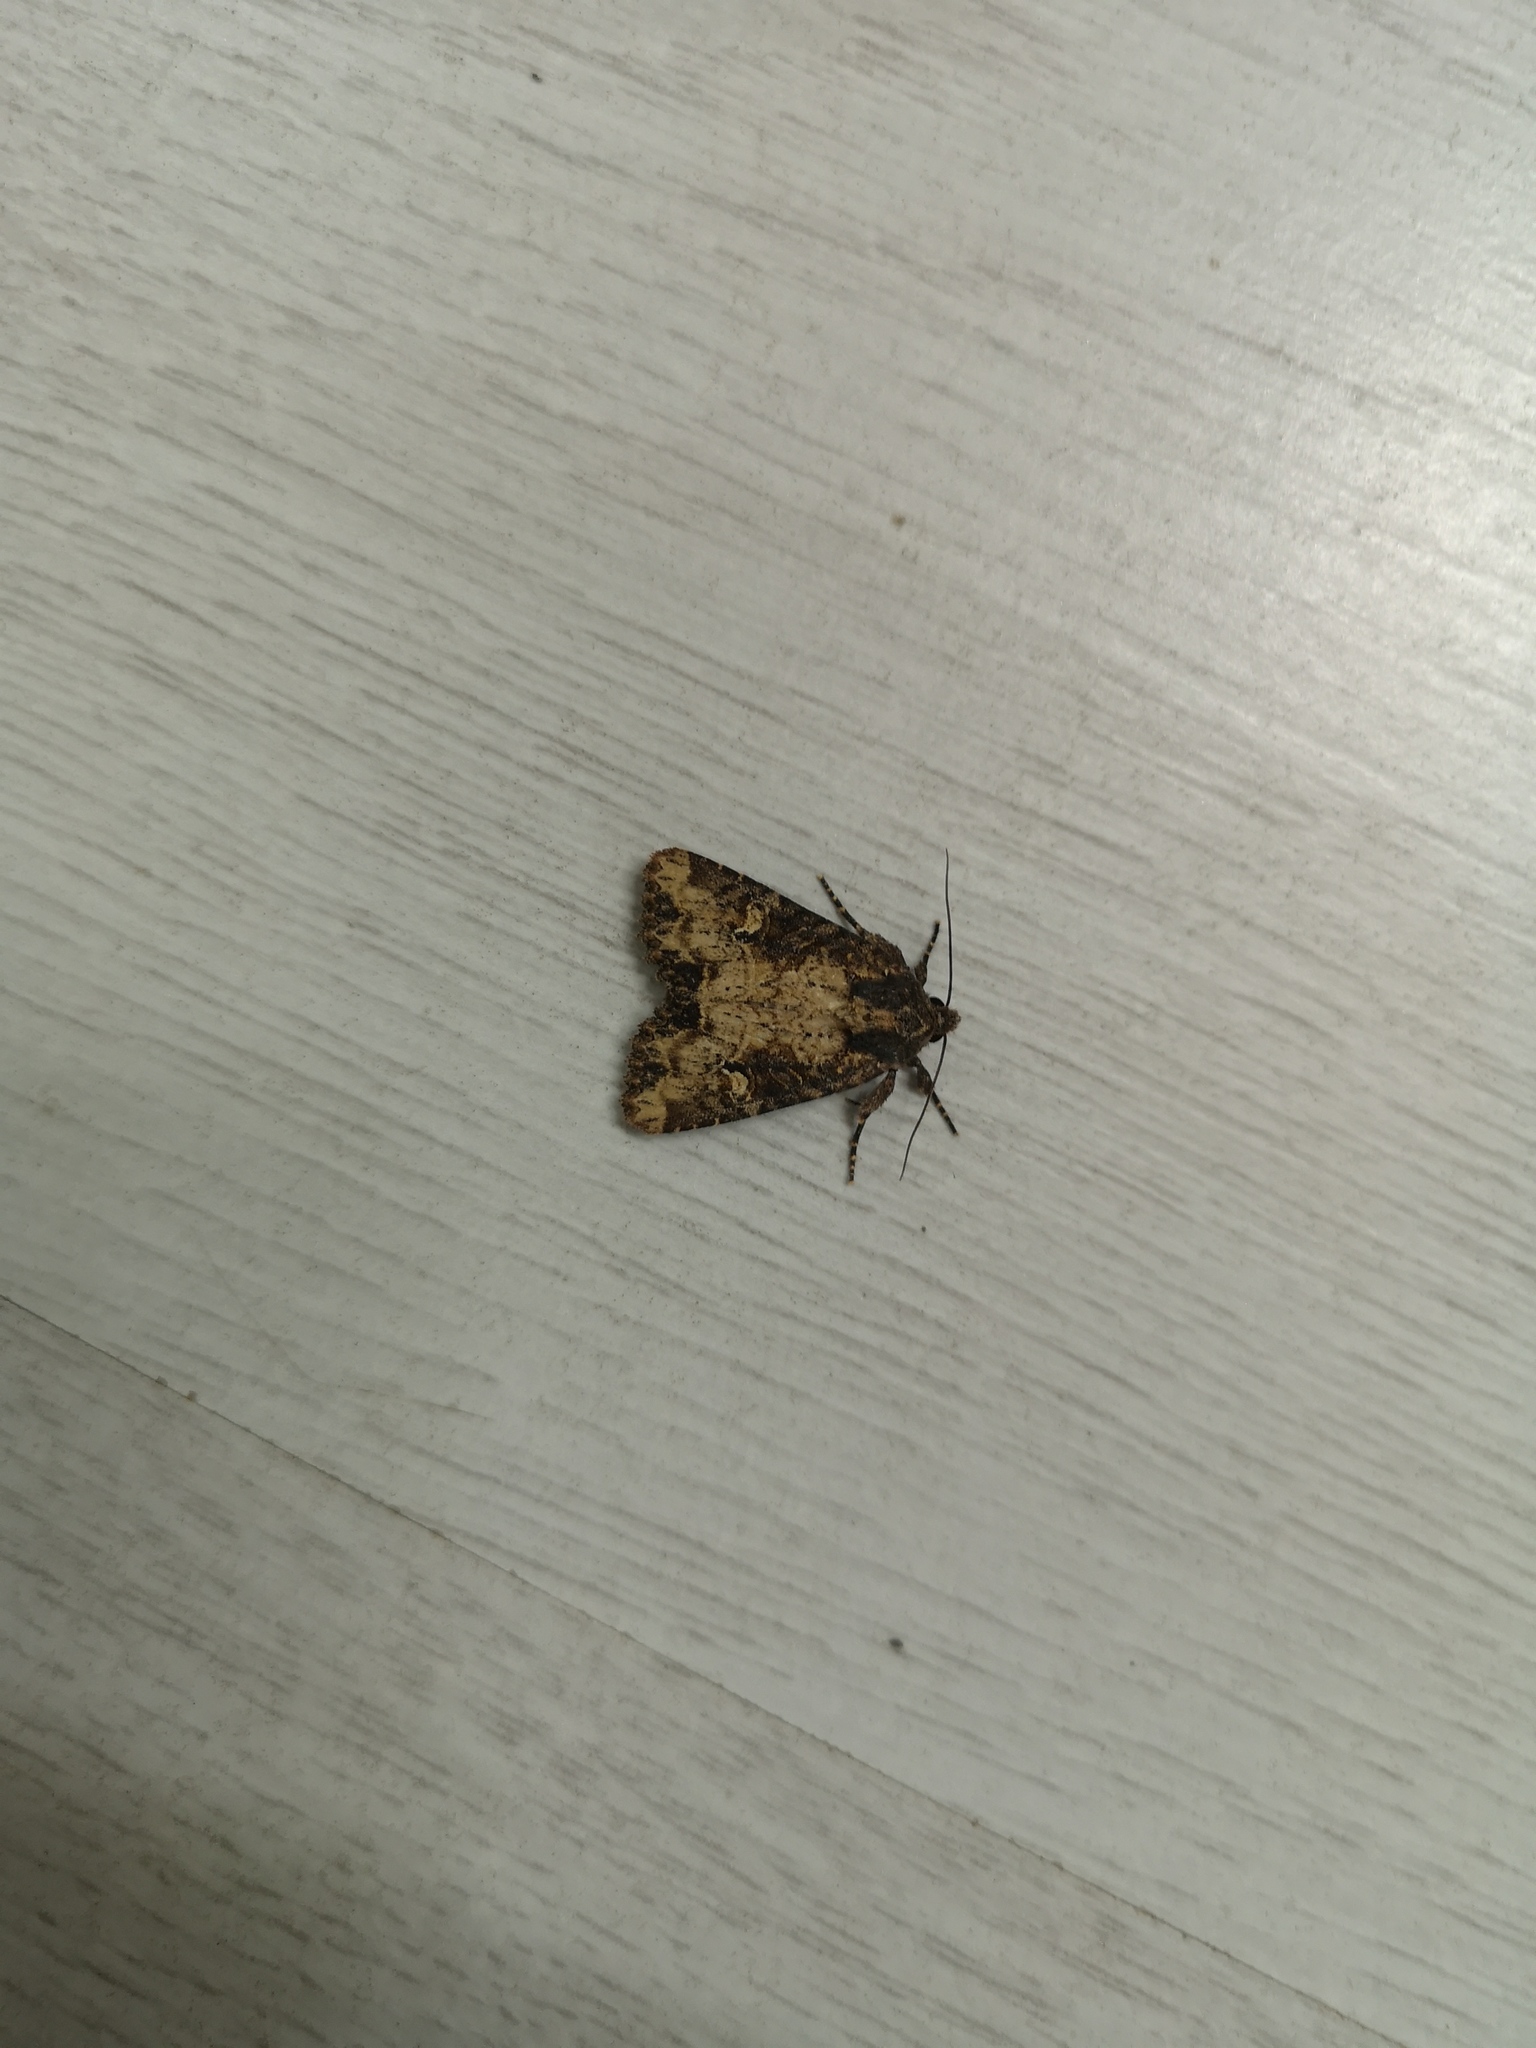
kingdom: Animalia
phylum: Arthropoda
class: Insecta
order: Lepidoptera
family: Noctuidae
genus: Mesapamea
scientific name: Mesapamea
